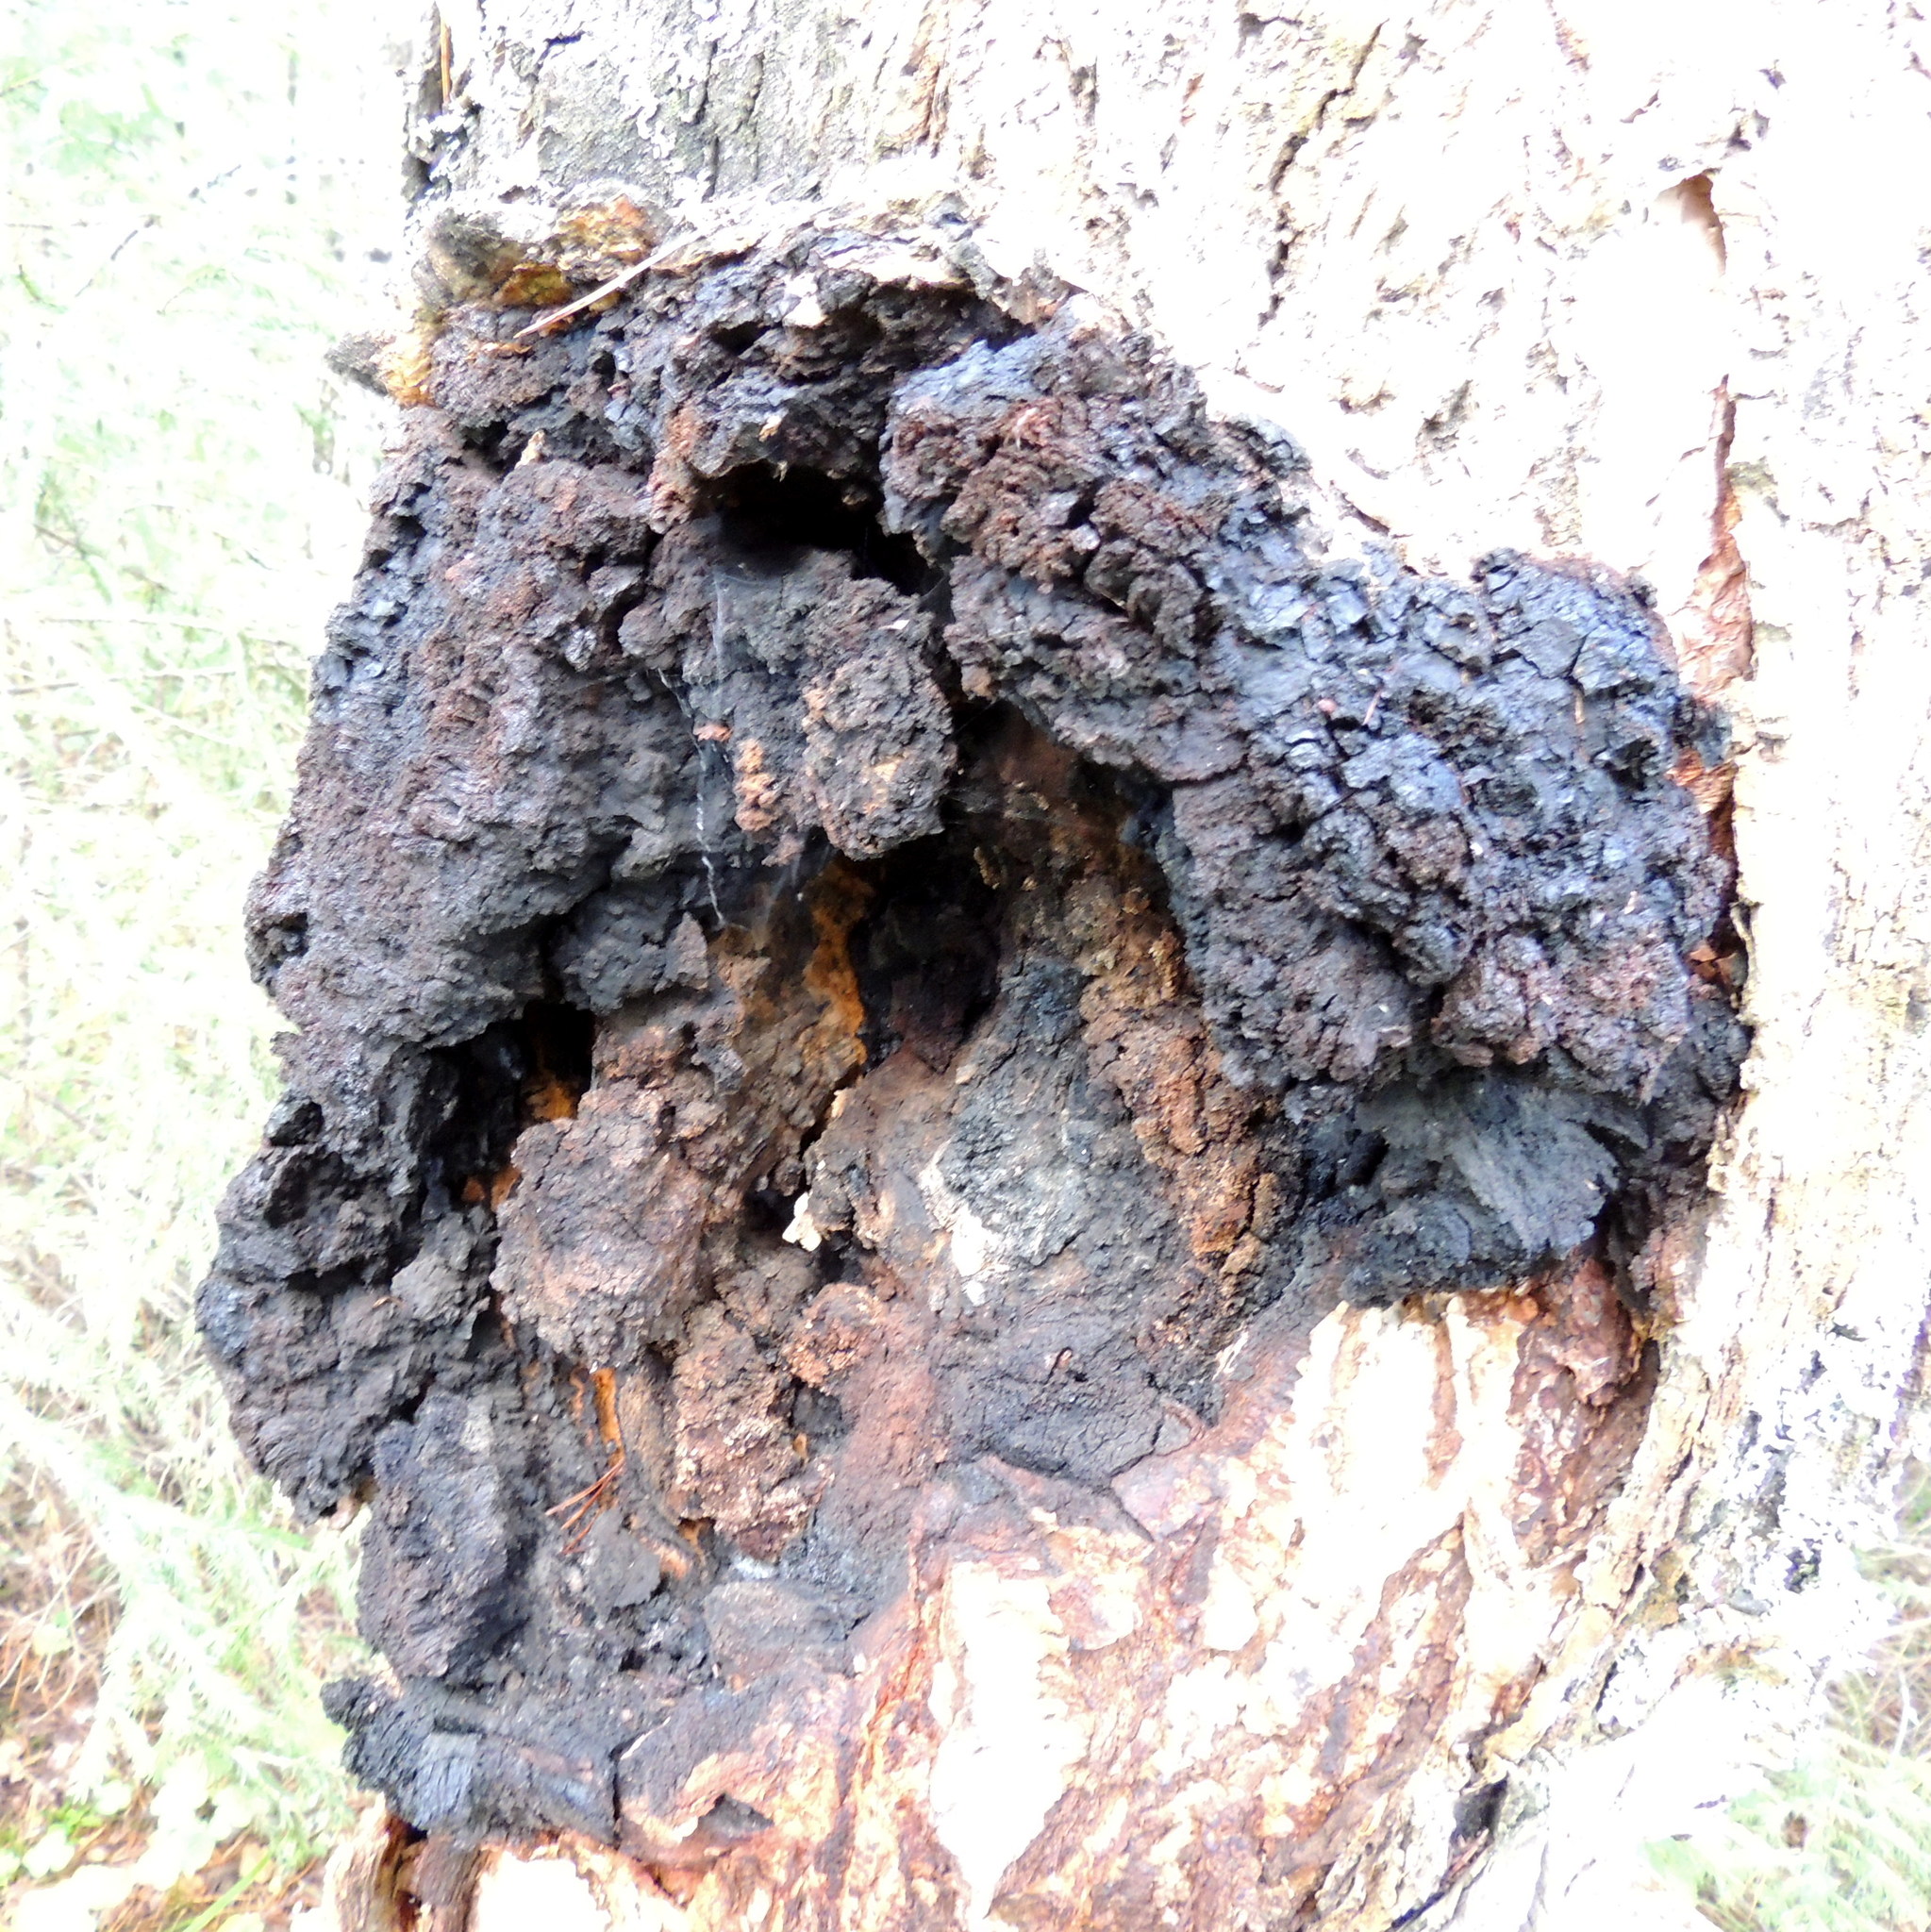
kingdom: Fungi
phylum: Basidiomycota
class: Agaricomycetes
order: Hymenochaetales
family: Hymenochaetaceae
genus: Inonotus
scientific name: Inonotus obliquus
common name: Chaga
